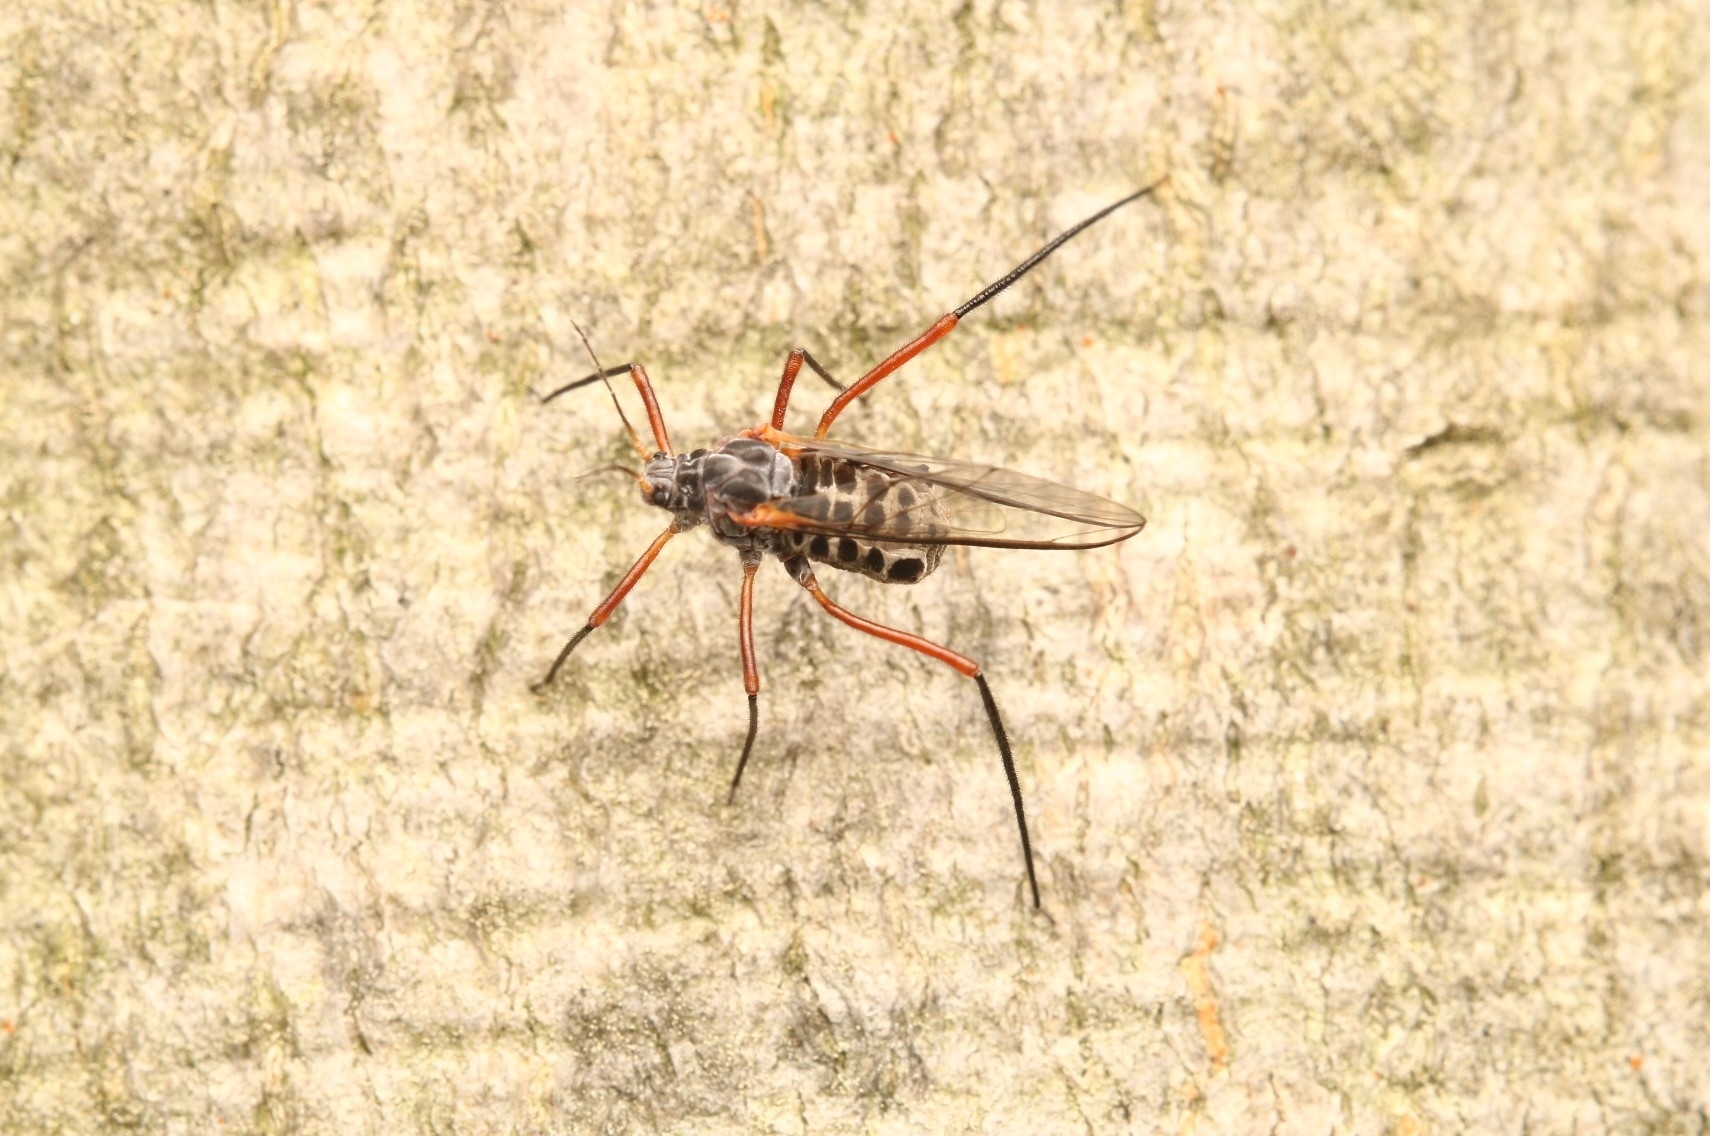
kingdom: Animalia
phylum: Arthropoda
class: Insecta
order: Hemiptera
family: Aphididae
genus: Longistigma
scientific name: Longistigma caryae
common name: Giant bark aphid
